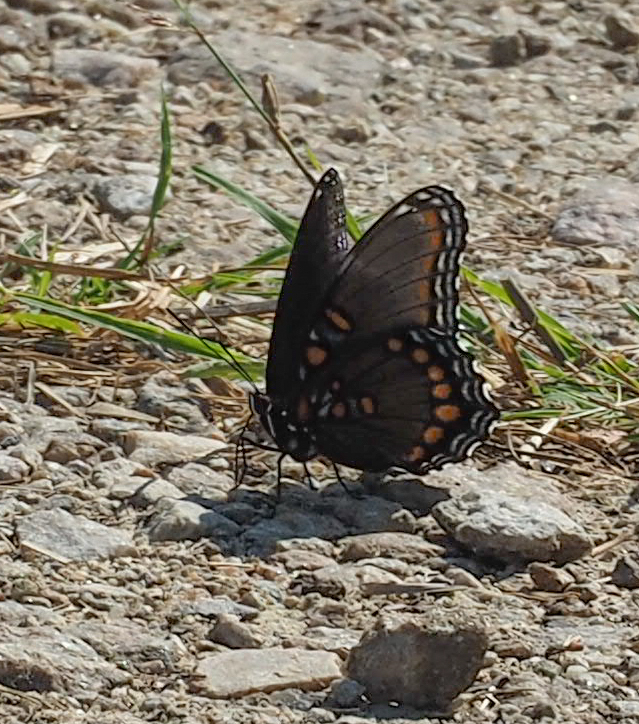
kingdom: Animalia
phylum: Arthropoda
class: Insecta
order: Lepidoptera
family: Nymphalidae
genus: Limenitis
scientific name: Limenitis astyanax
